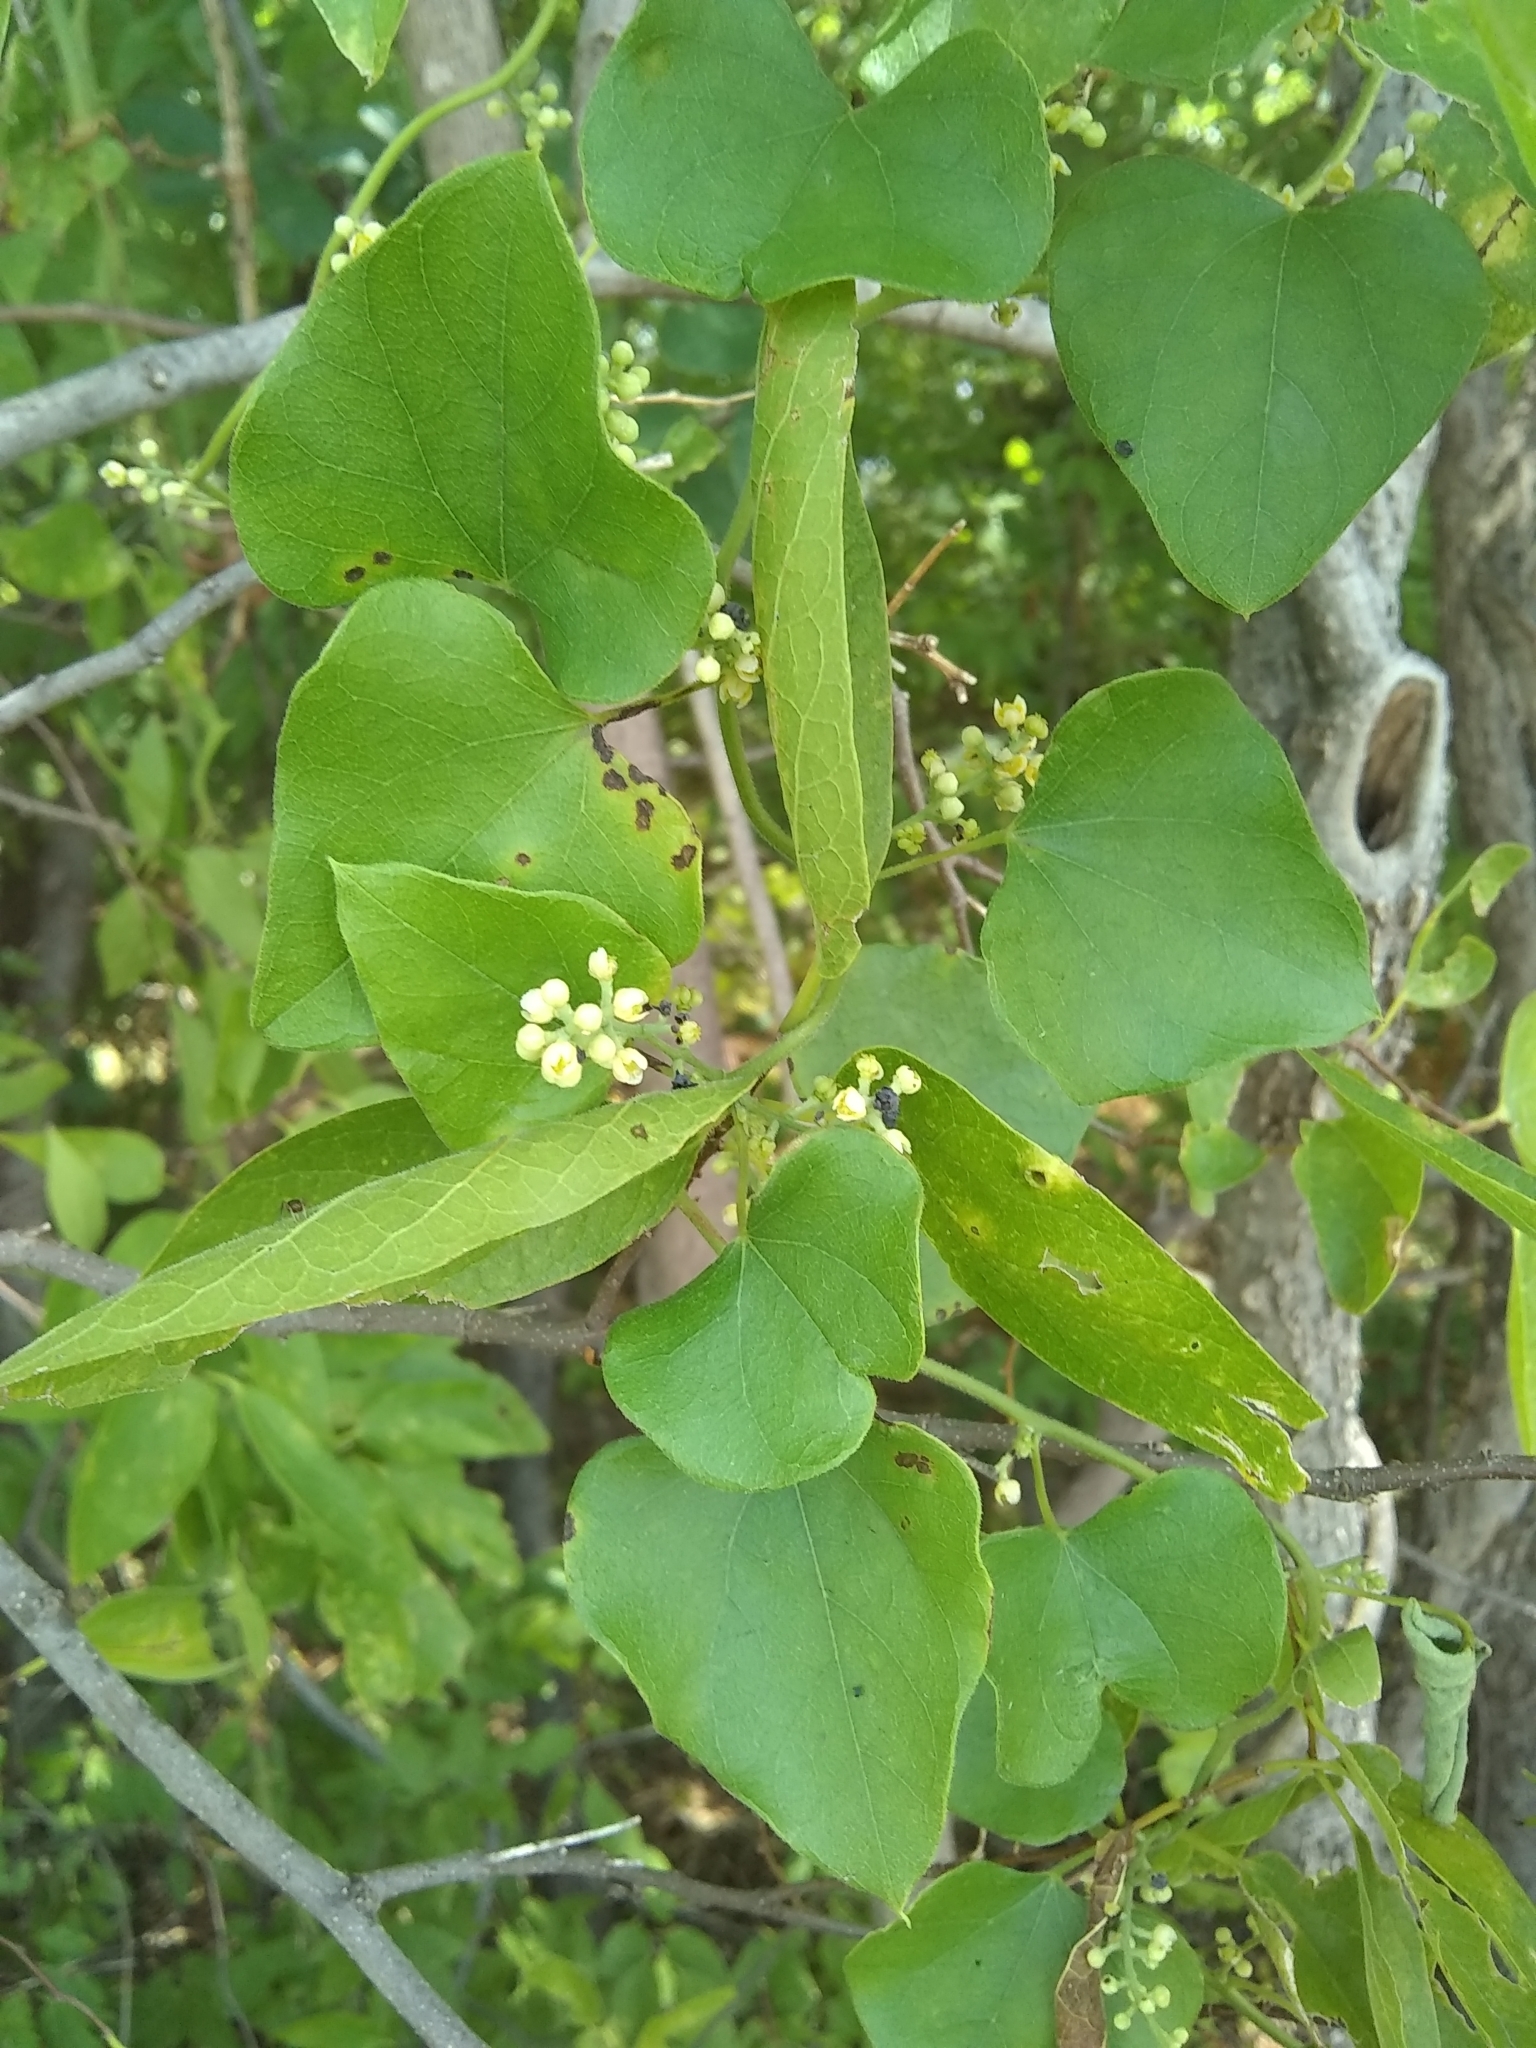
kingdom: Plantae
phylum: Tracheophyta
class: Magnoliopsida
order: Ranunculales
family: Menispermaceae
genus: Cocculus
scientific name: Cocculus carolinus
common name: Carolina moonseed
